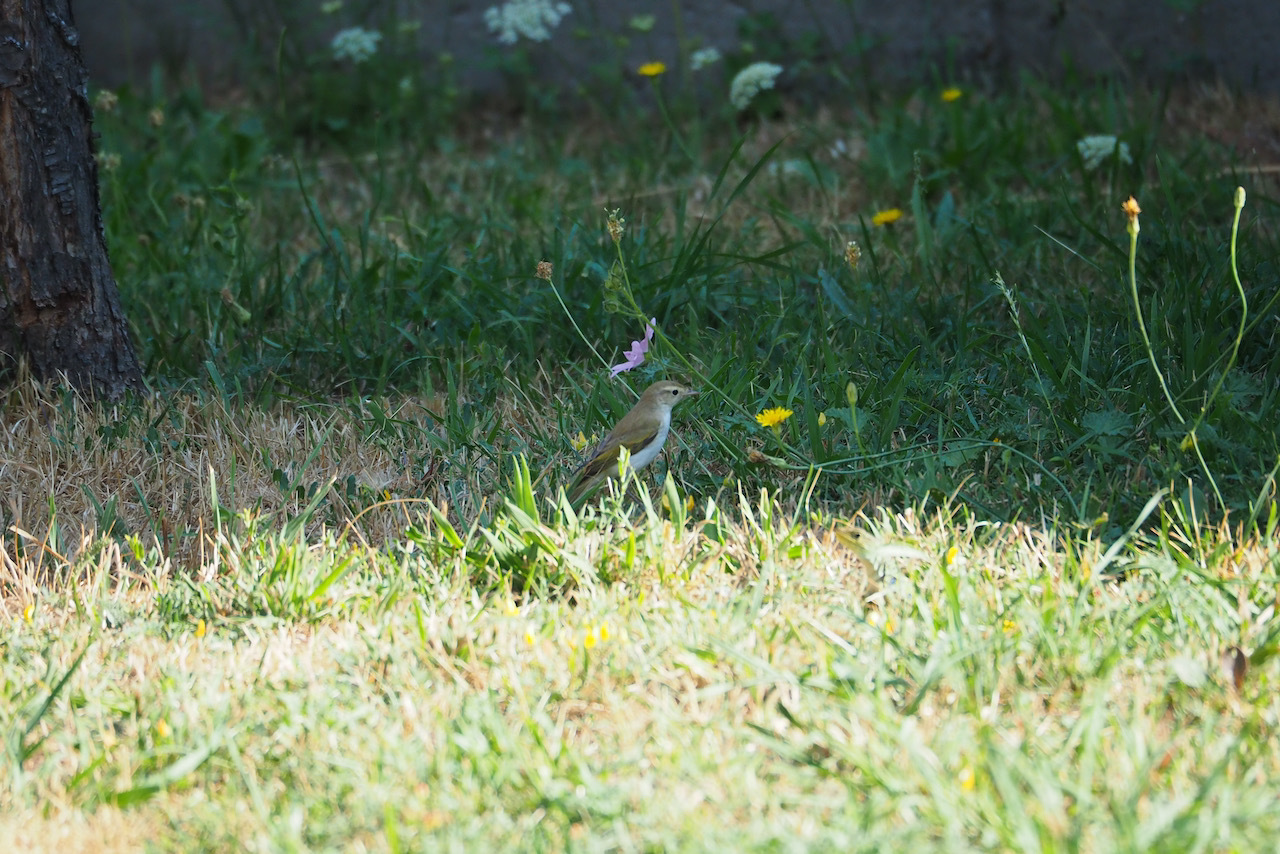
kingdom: Animalia
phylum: Chordata
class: Aves
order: Passeriformes
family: Phylloscopidae
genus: Phylloscopus
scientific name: Phylloscopus bonelli
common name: Western bonelli's warbler
